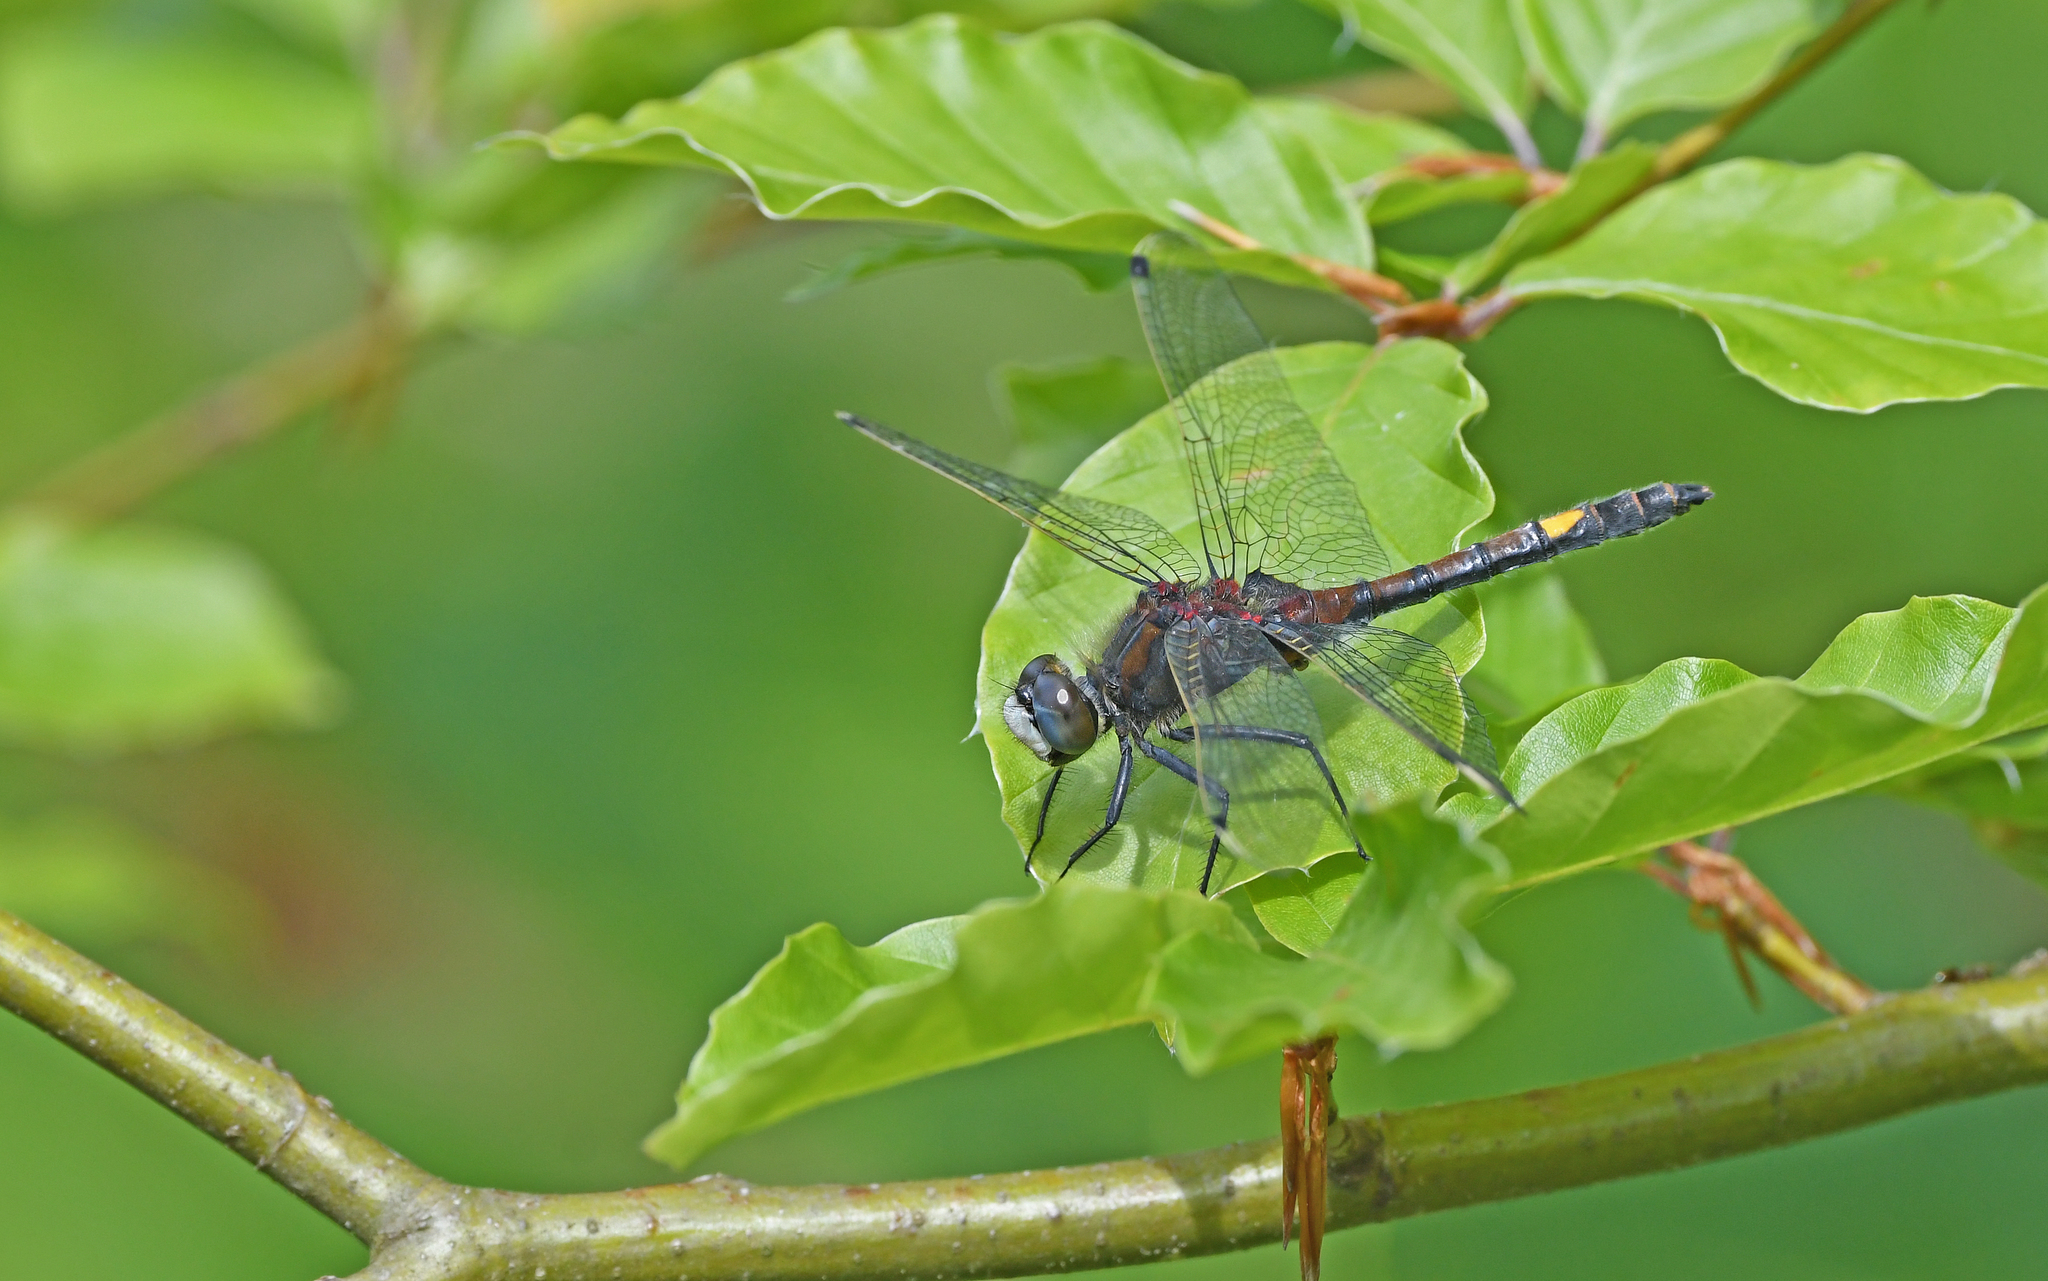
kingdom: Animalia
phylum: Arthropoda
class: Insecta
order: Odonata
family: Libellulidae
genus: Leucorrhinia
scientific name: Leucorrhinia pectoralis
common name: Yellow-spotted whiteface
